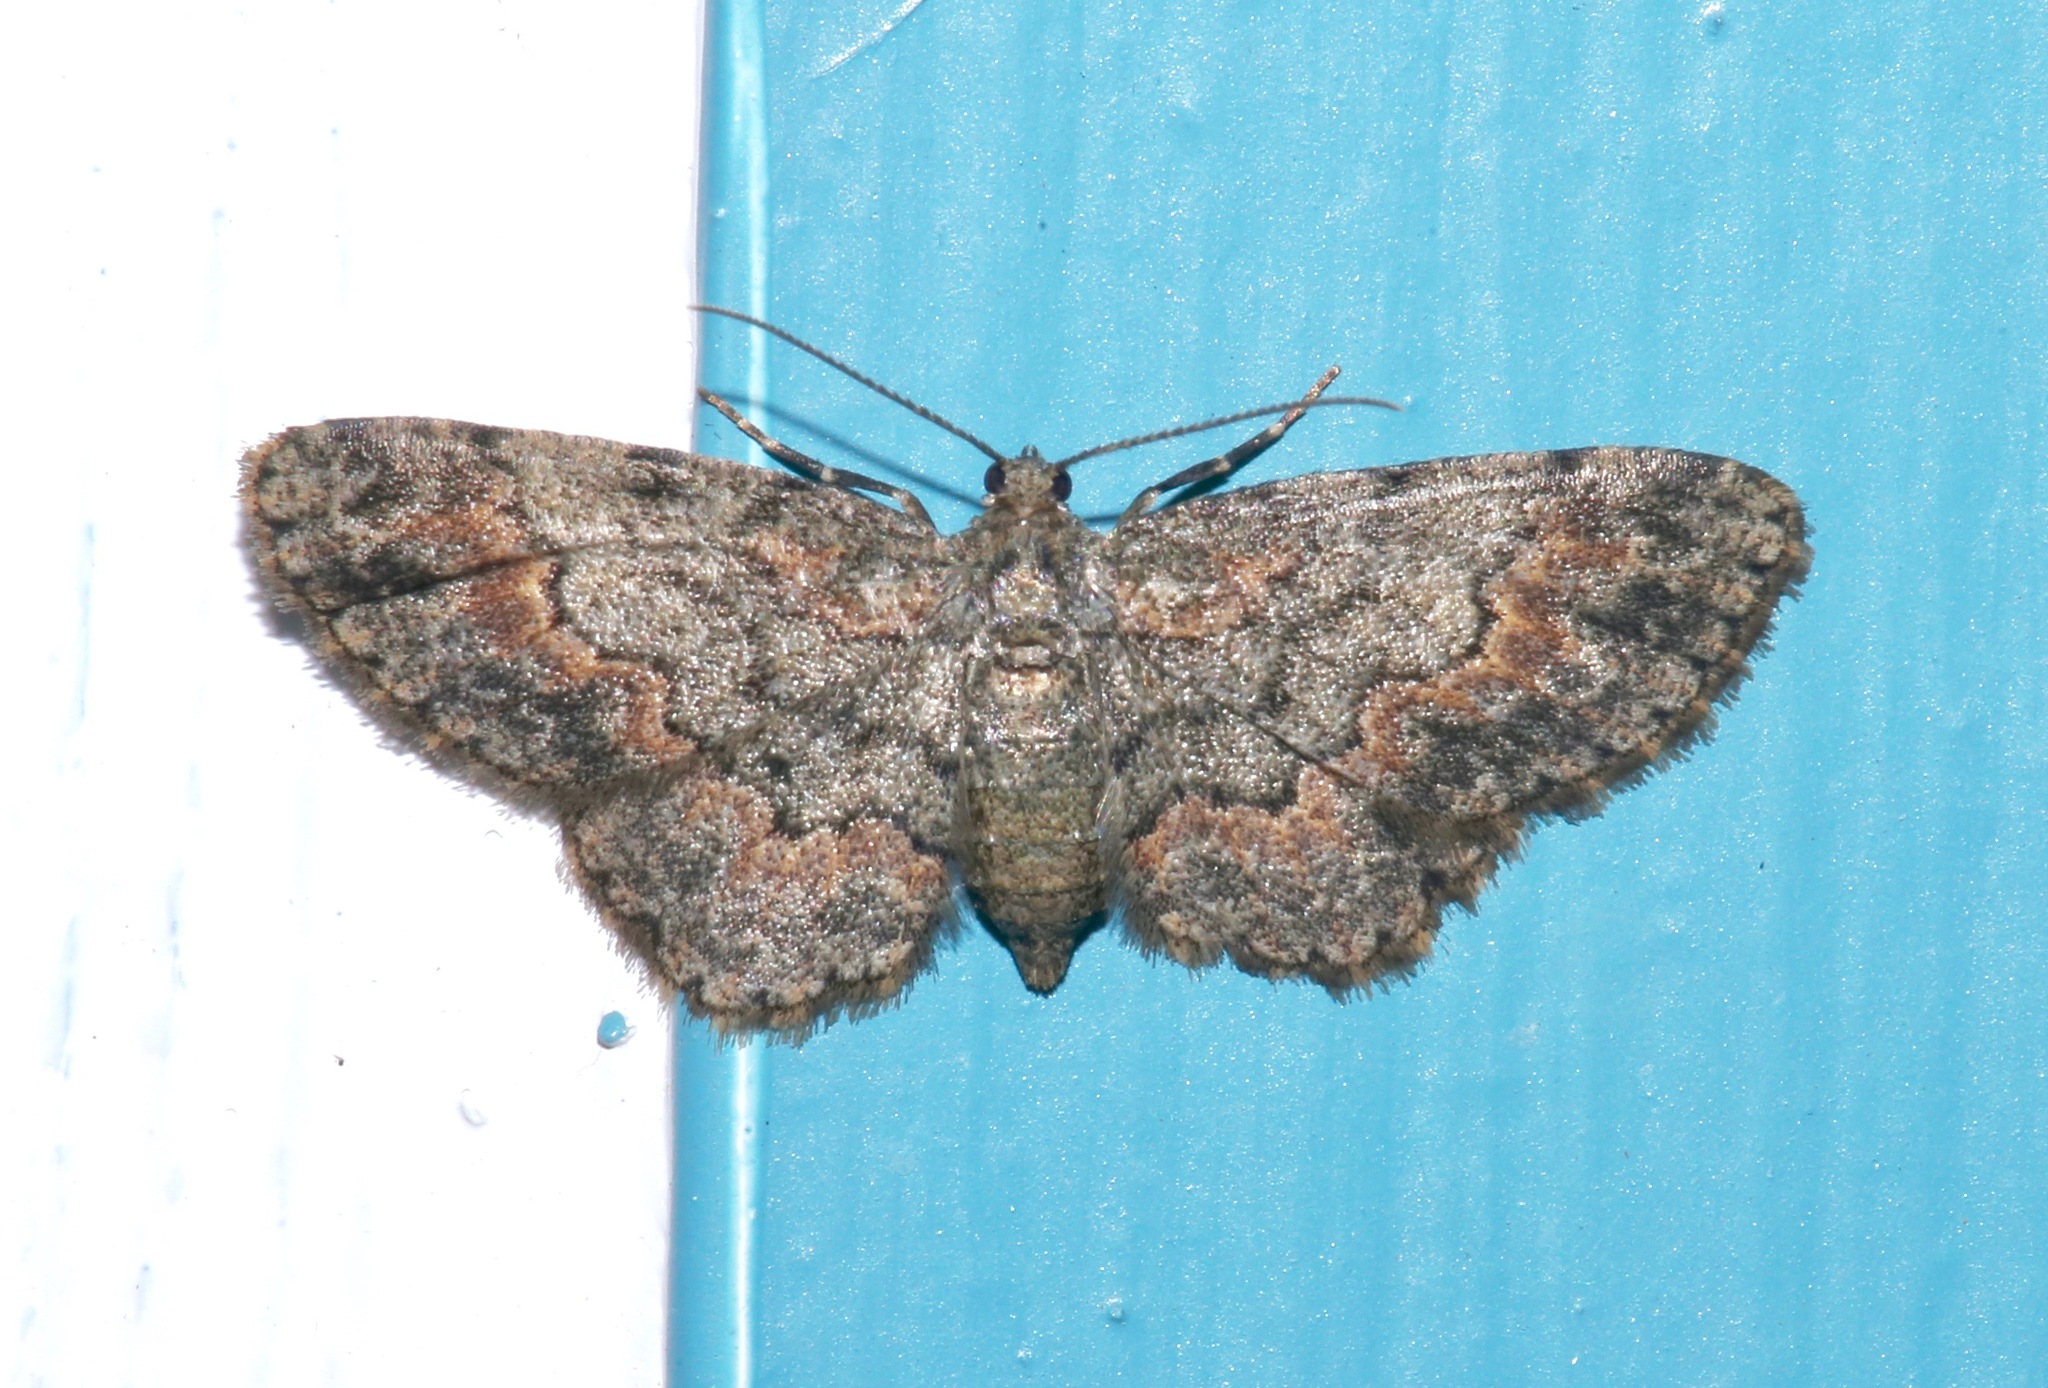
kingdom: Animalia
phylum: Arthropoda
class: Insecta
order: Lepidoptera
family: Geometridae
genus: Glenoides
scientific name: Glenoides texanaria
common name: Texas gray
